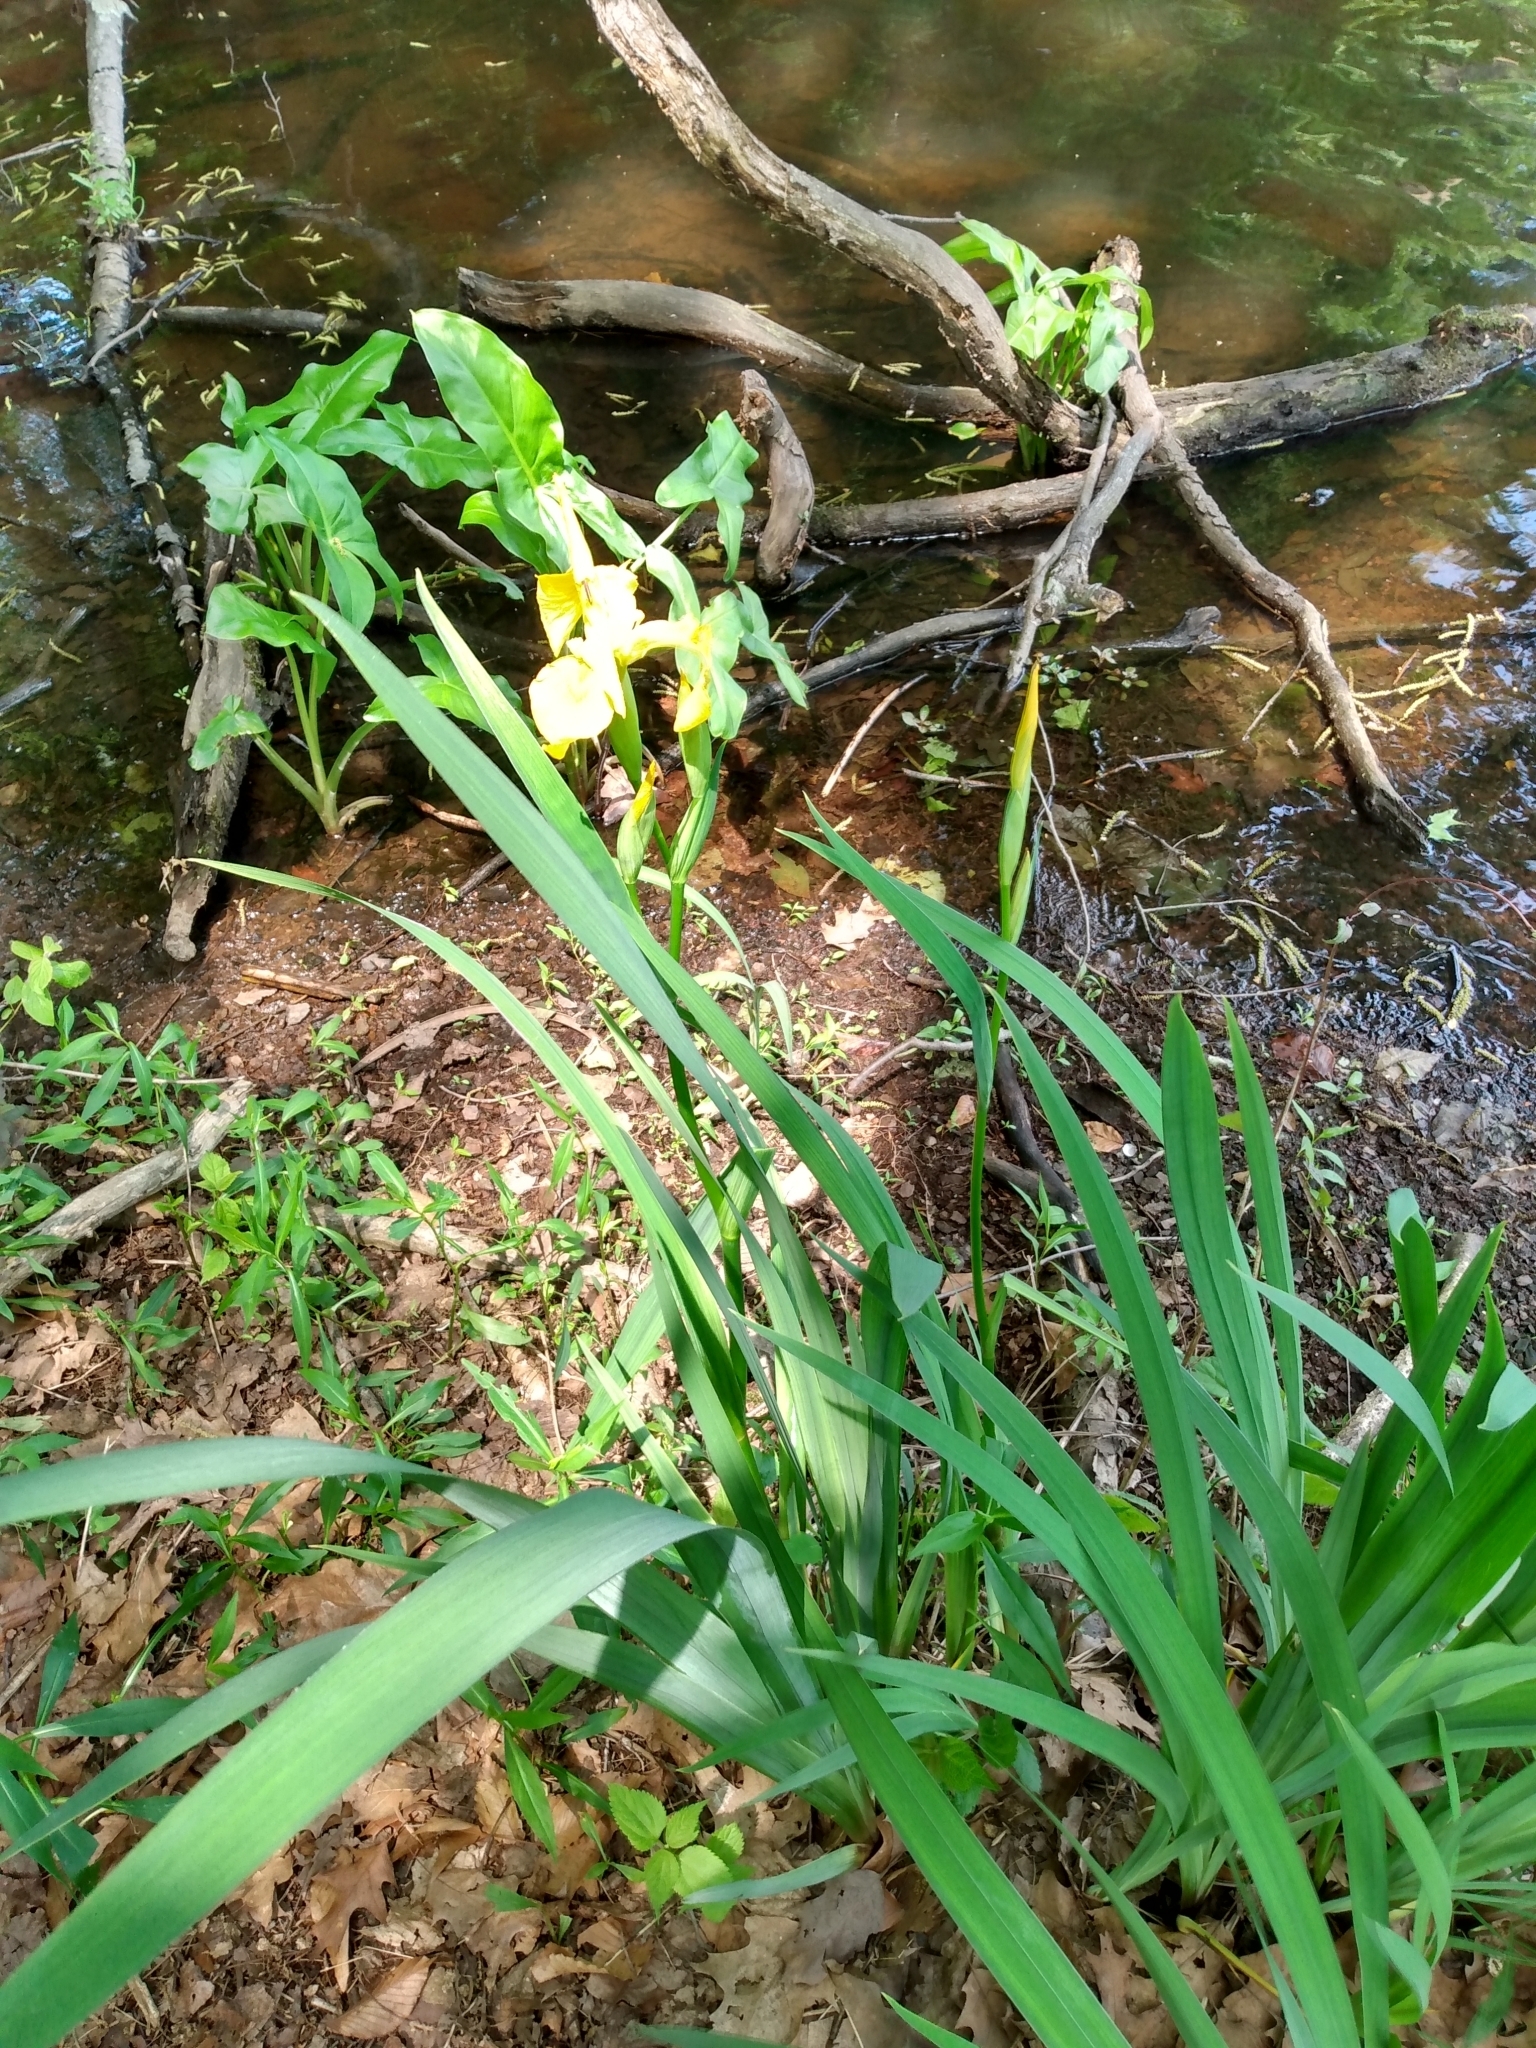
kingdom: Plantae
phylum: Tracheophyta
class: Liliopsida
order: Asparagales
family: Iridaceae
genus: Iris
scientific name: Iris pseudacorus
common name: Yellow flag
